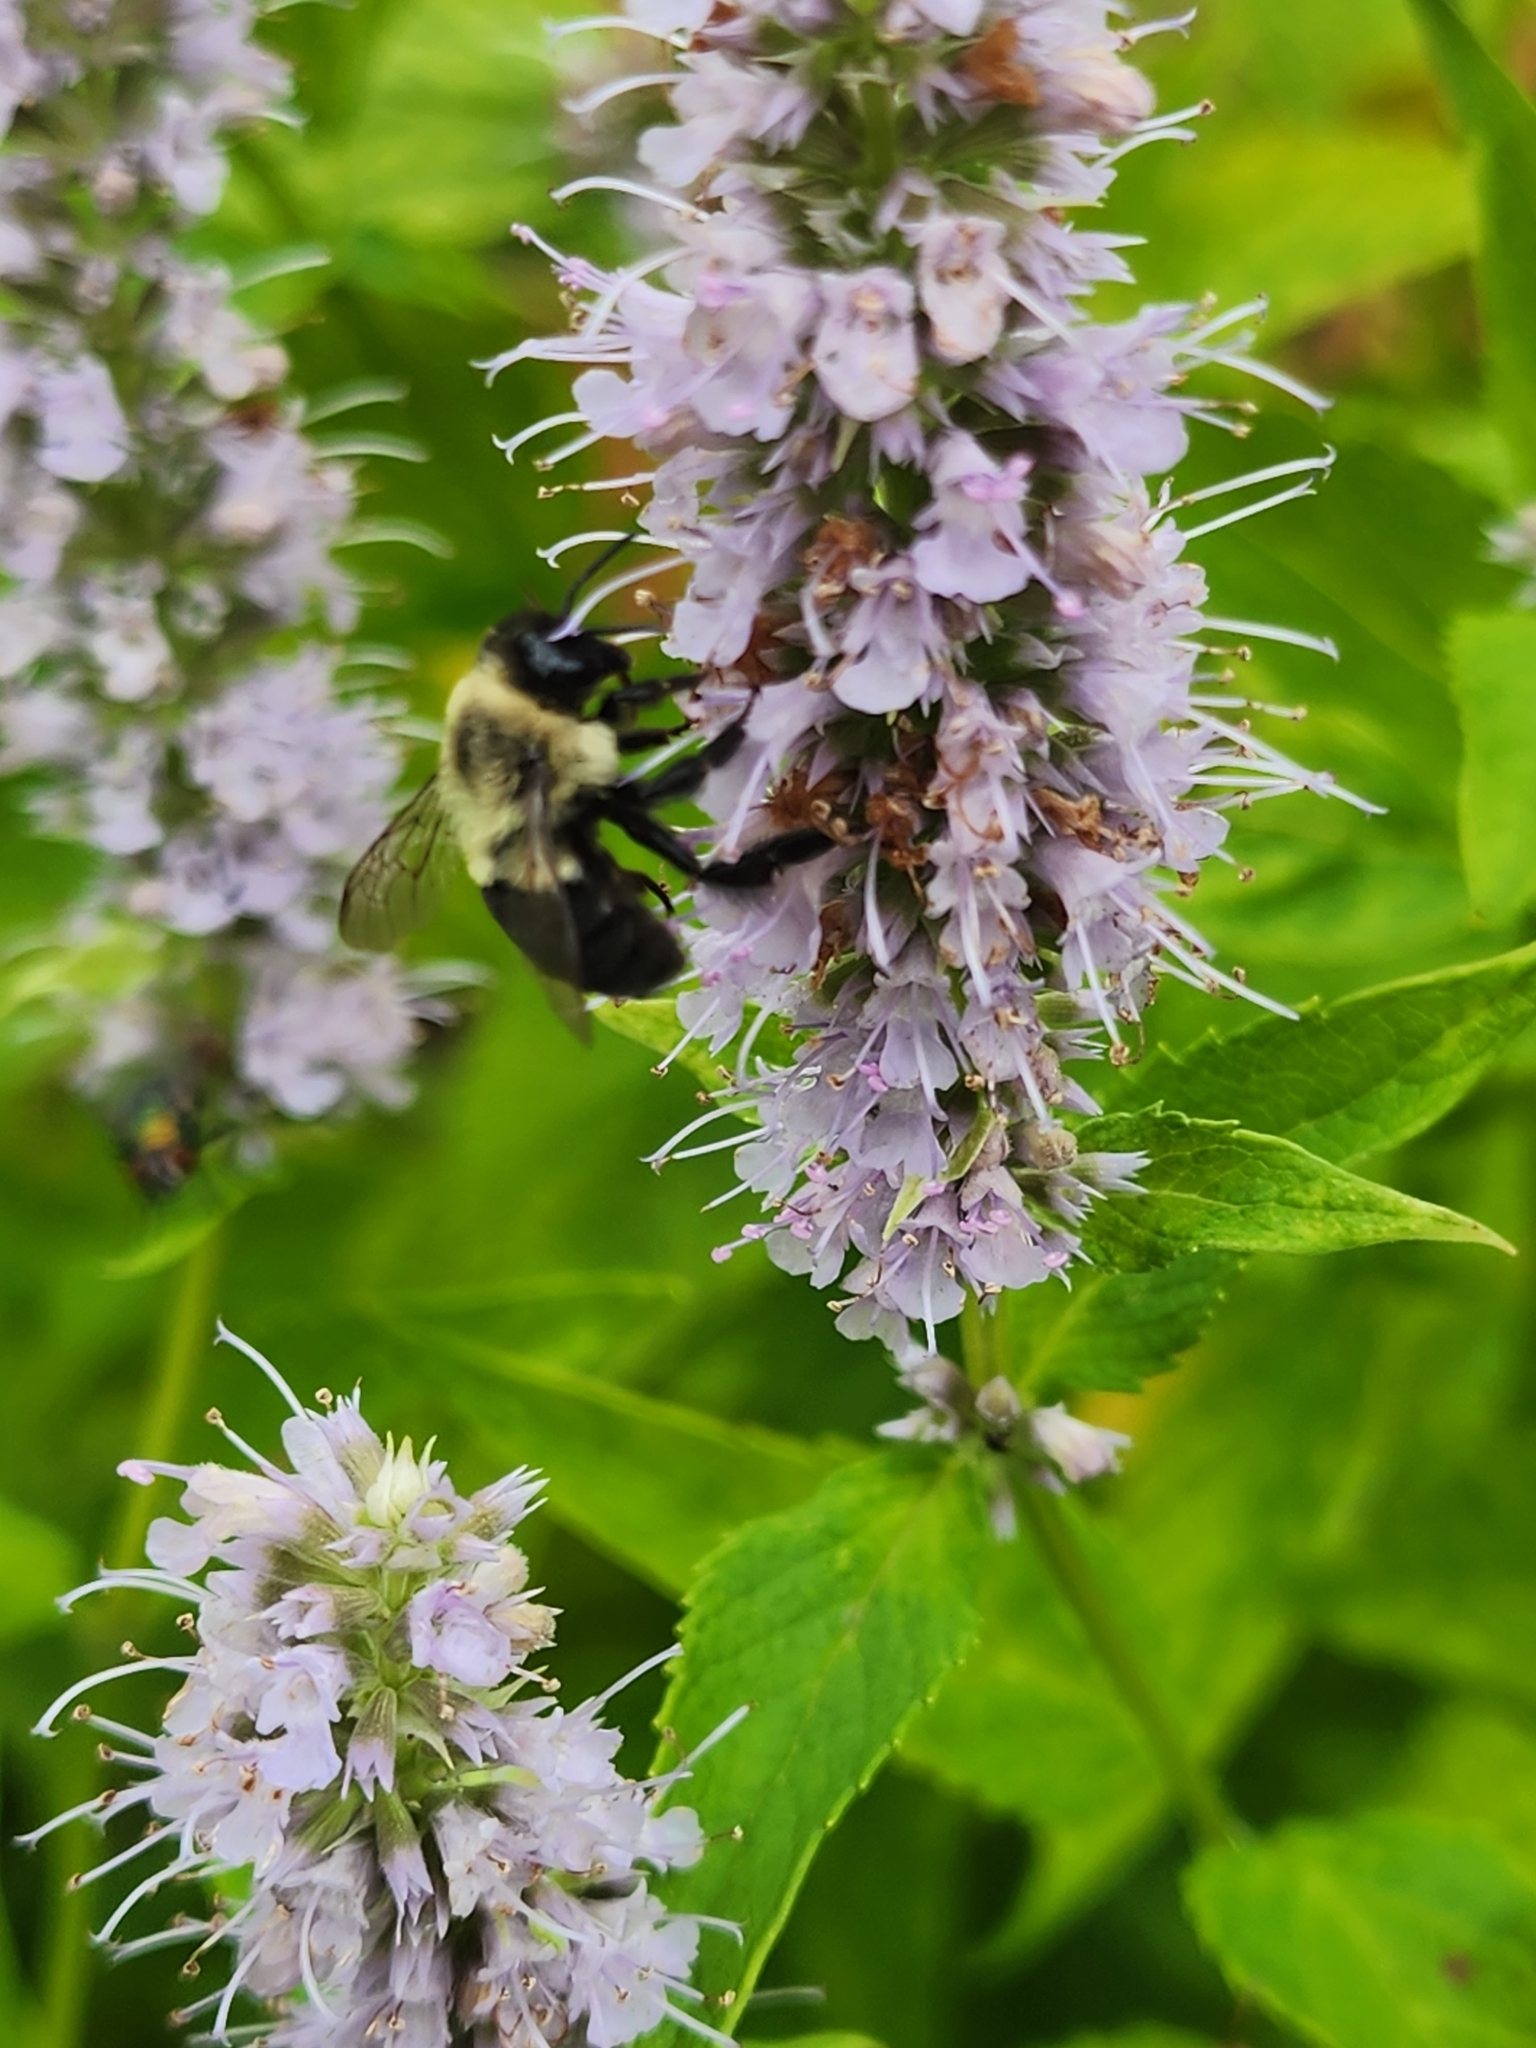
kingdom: Animalia
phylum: Arthropoda
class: Insecta
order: Hymenoptera
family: Apidae
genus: Bombus
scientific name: Bombus impatiens
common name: Common eastern bumble bee
